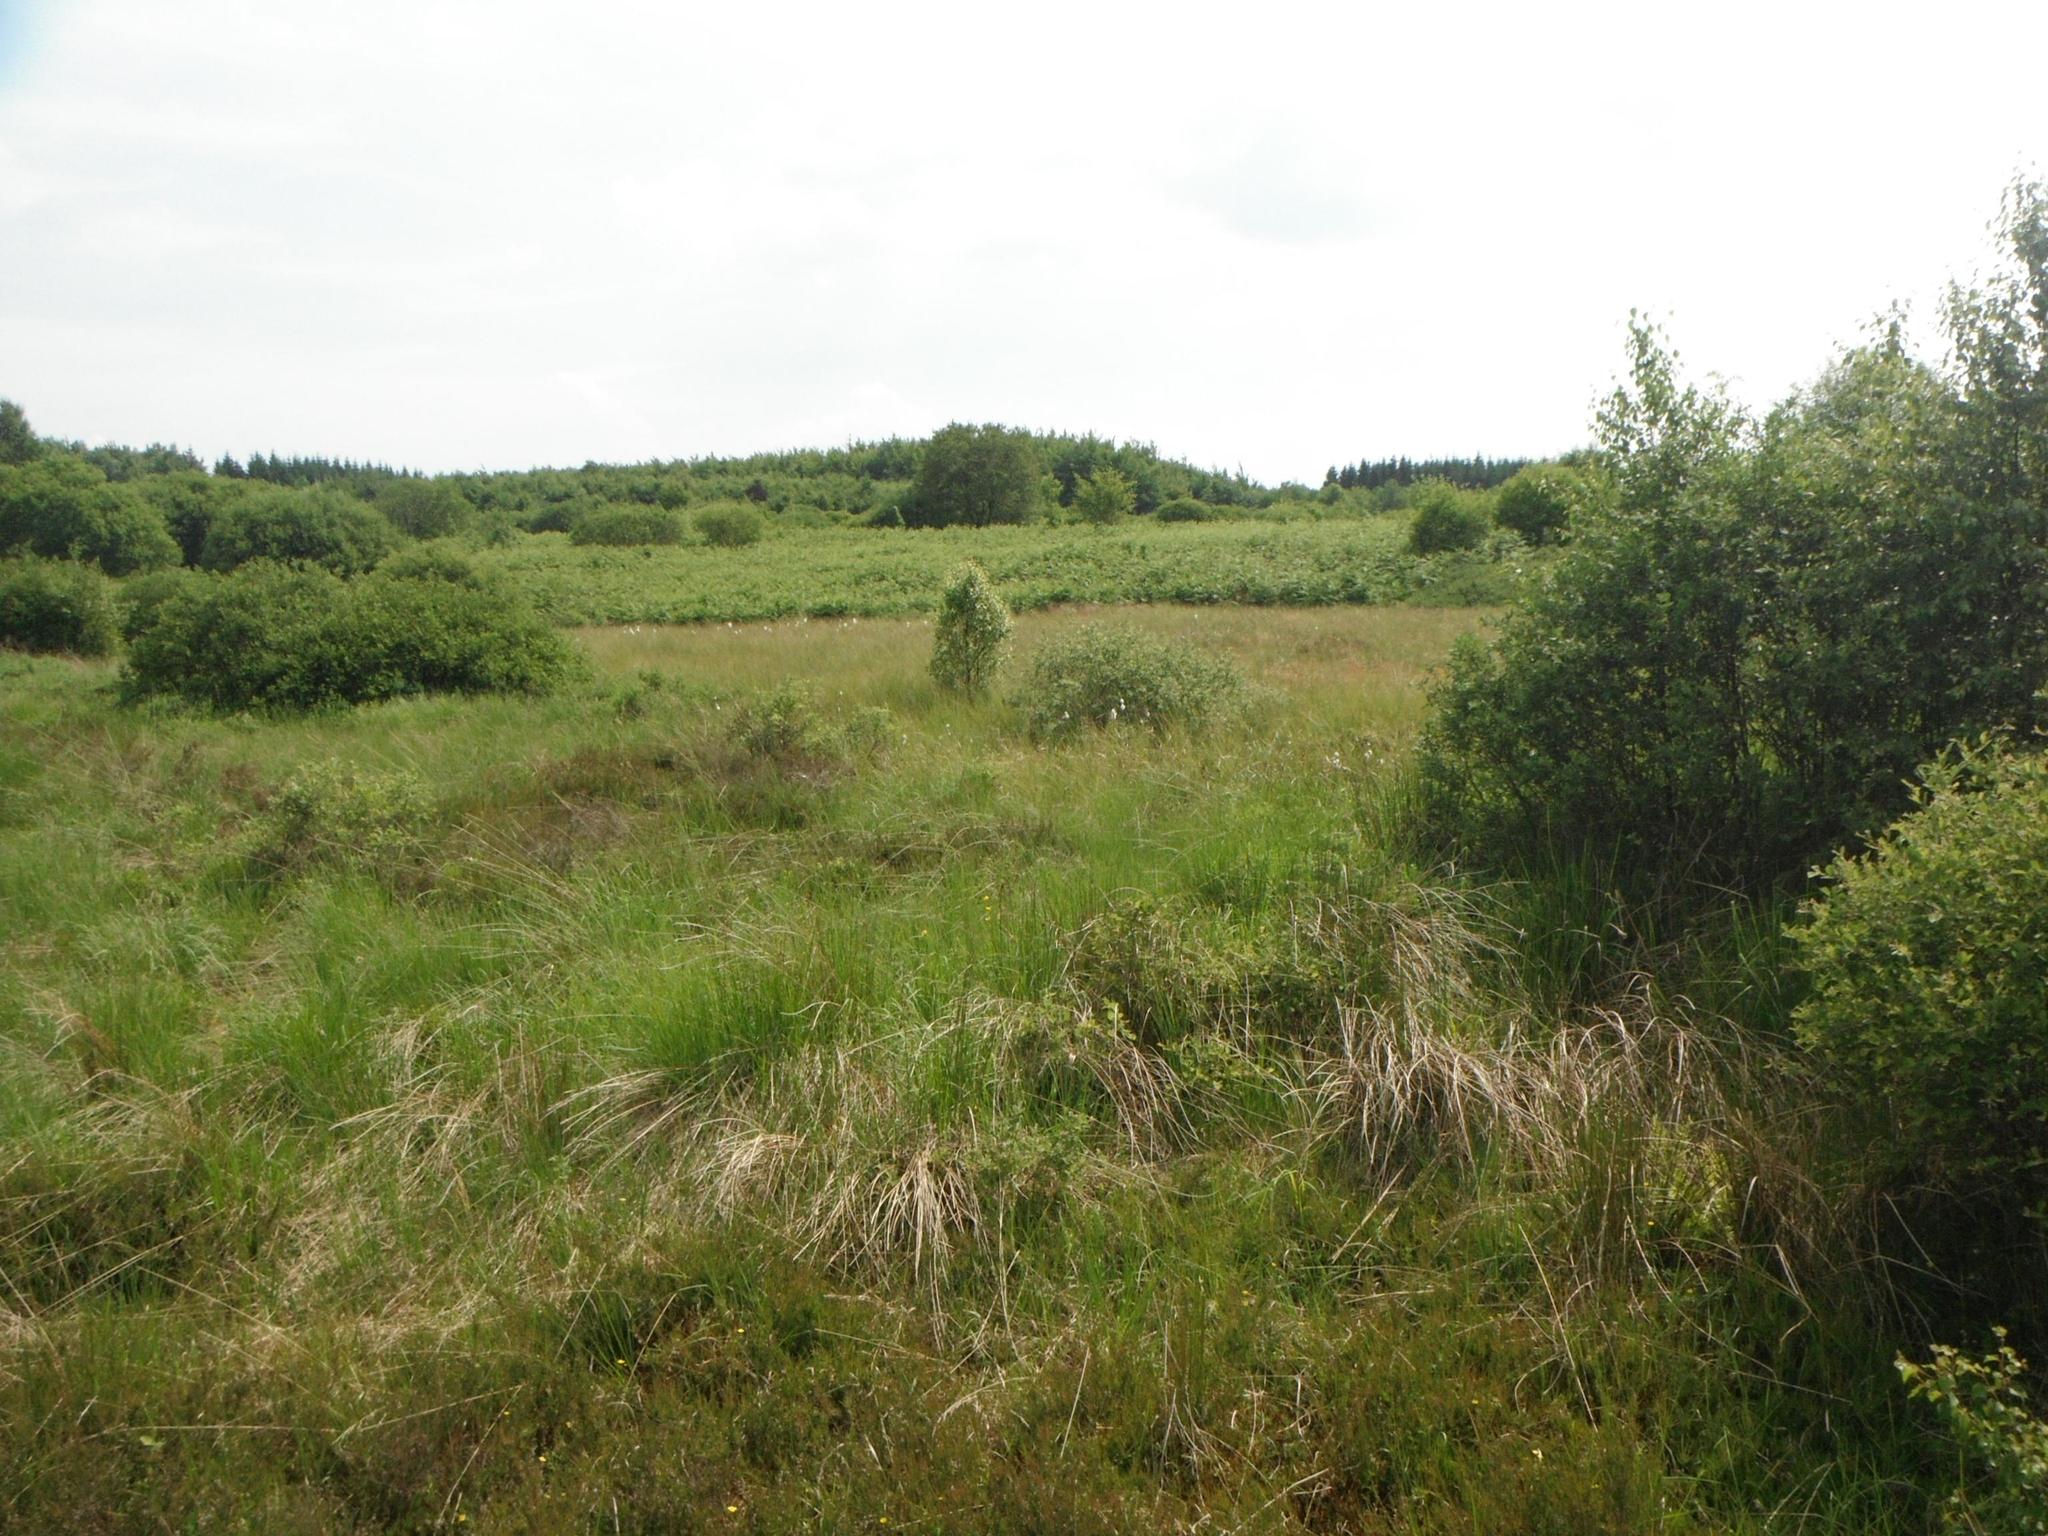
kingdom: Plantae
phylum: Tracheophyta
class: Liliopsida
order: Poales
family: Poaceae
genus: Molinia
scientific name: Molinia caerulea
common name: Purple moor-grass
